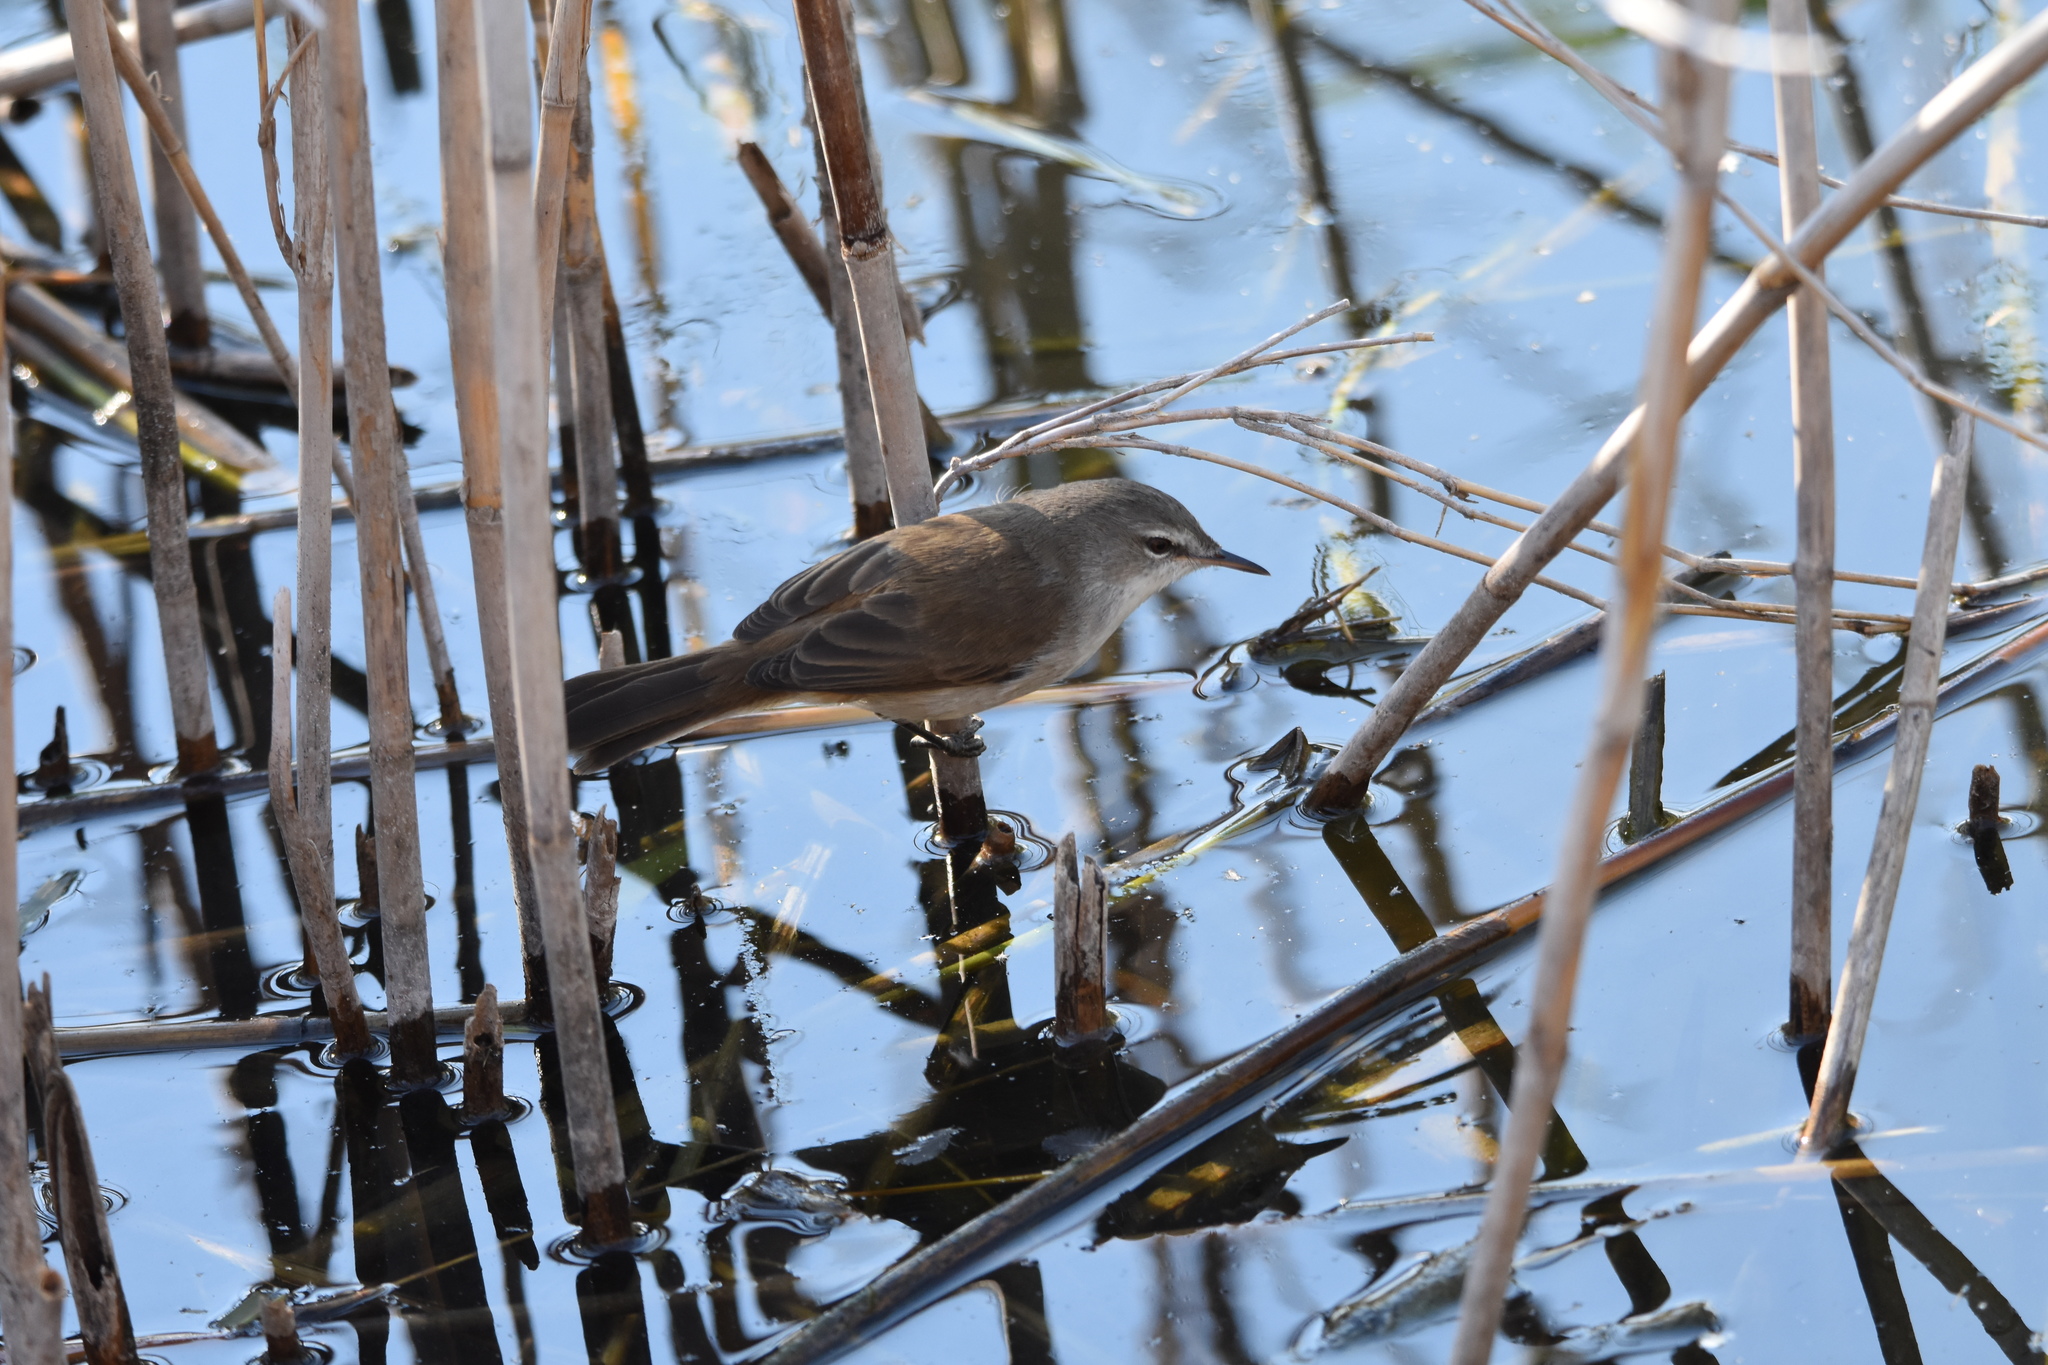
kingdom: Animalia
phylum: Chordata
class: Aves
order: Passeriformes
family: Acrocephalidae
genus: Acrocephalus
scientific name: Acrocephalus gracilirostris
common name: Lesser swamp warbler
